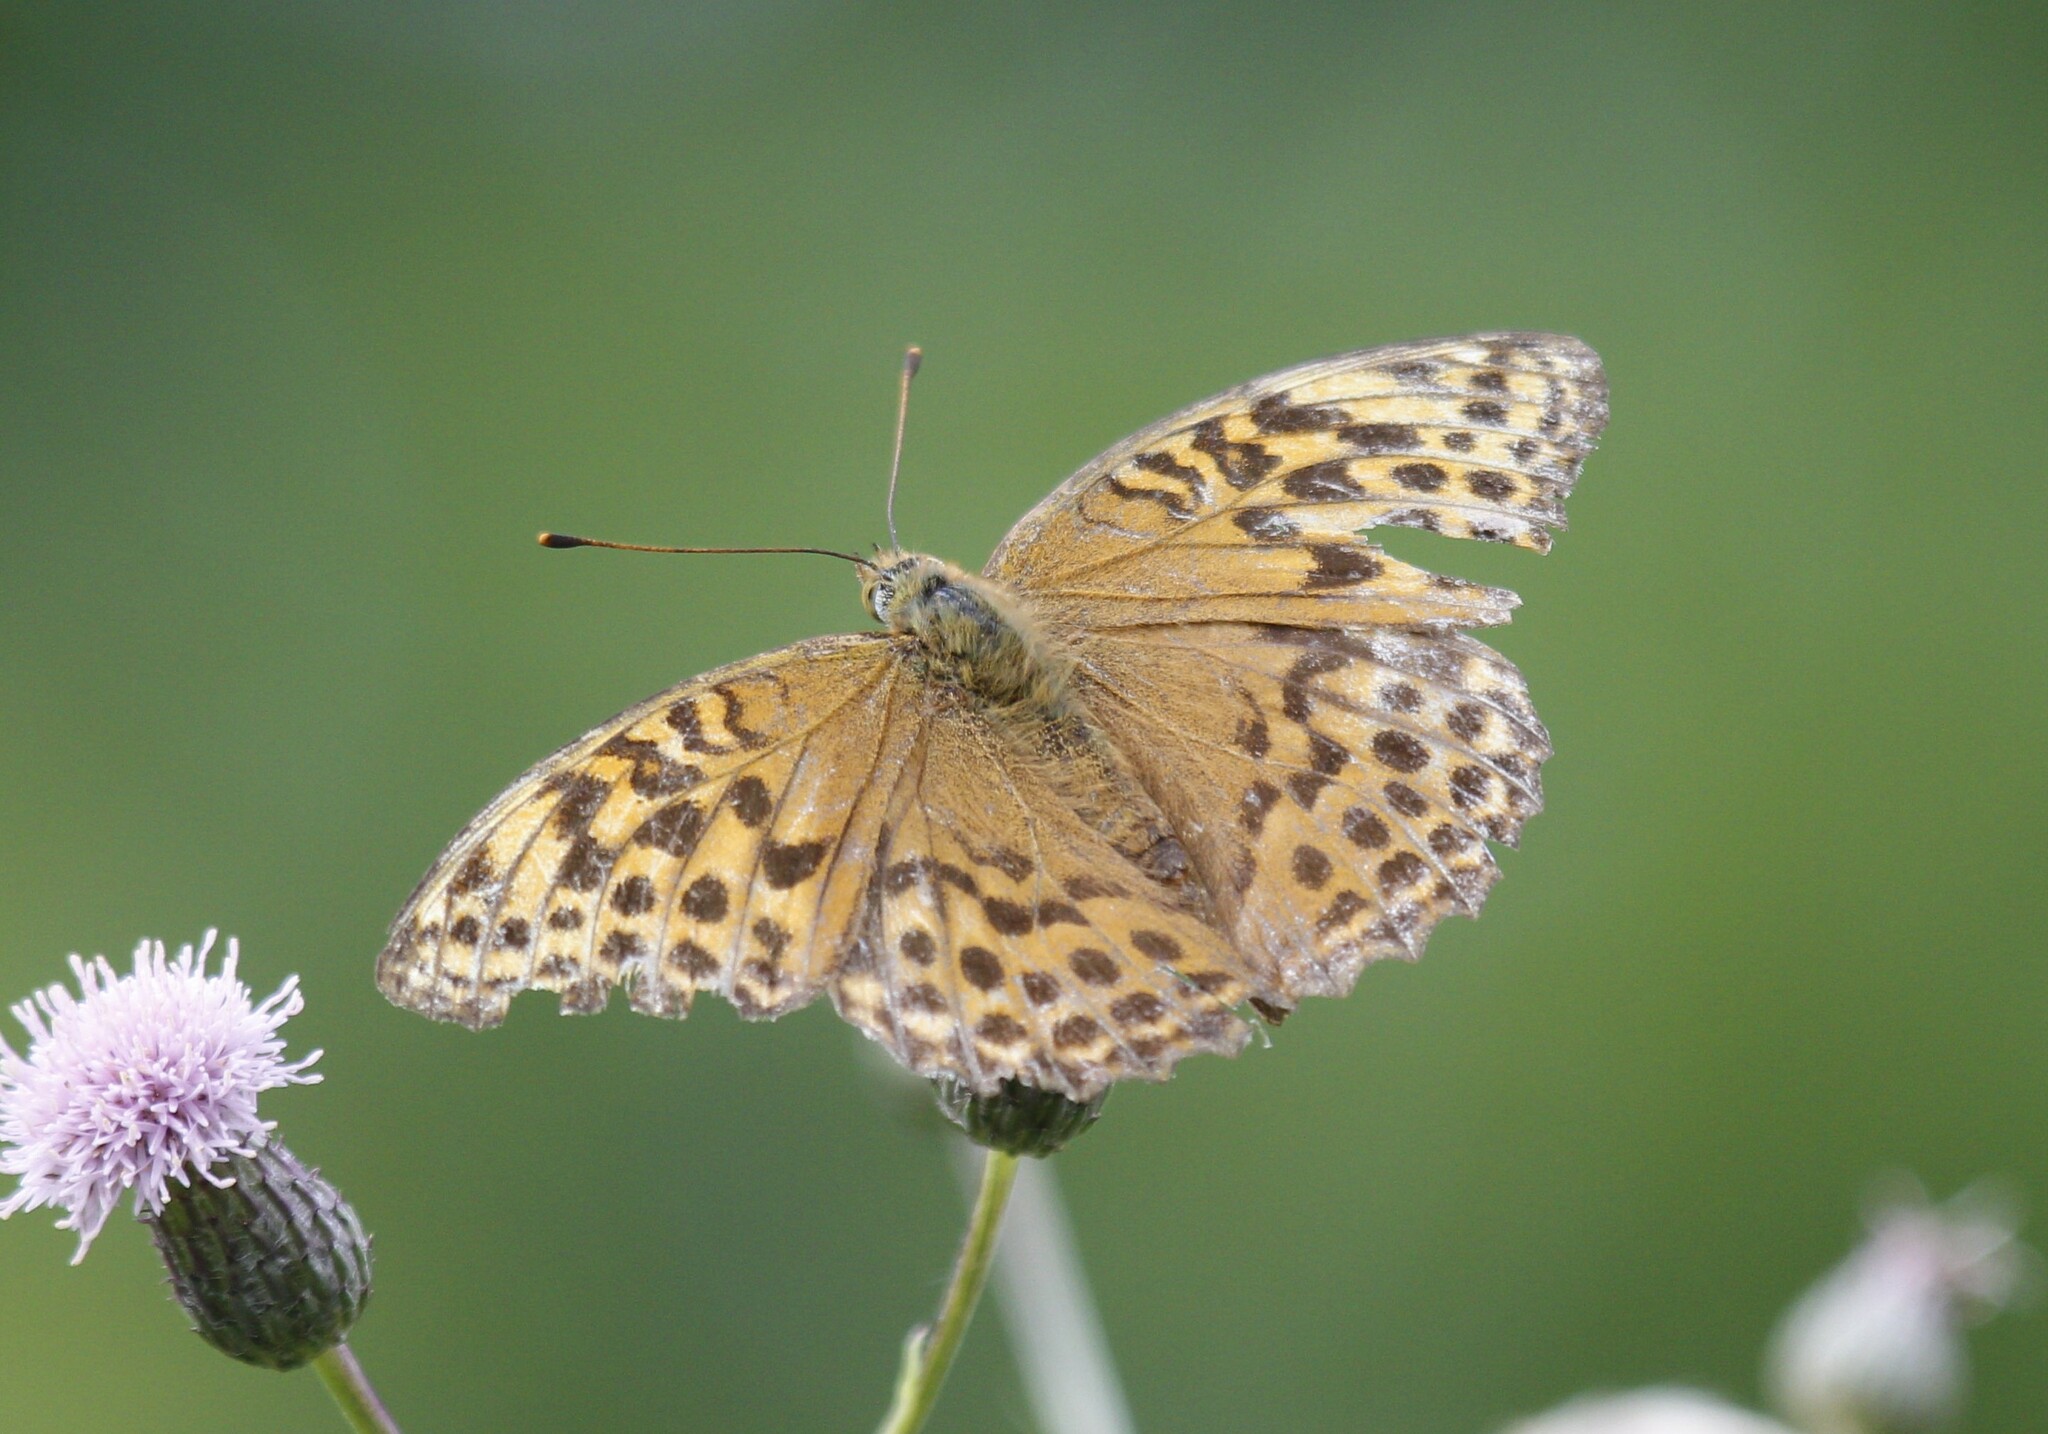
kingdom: Animalia
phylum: Arthropoda
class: Insecta
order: Lepidoptera
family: Nymphalidae
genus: Argynnis
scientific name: Argynnis paphia
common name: Silver-washed fritillary
